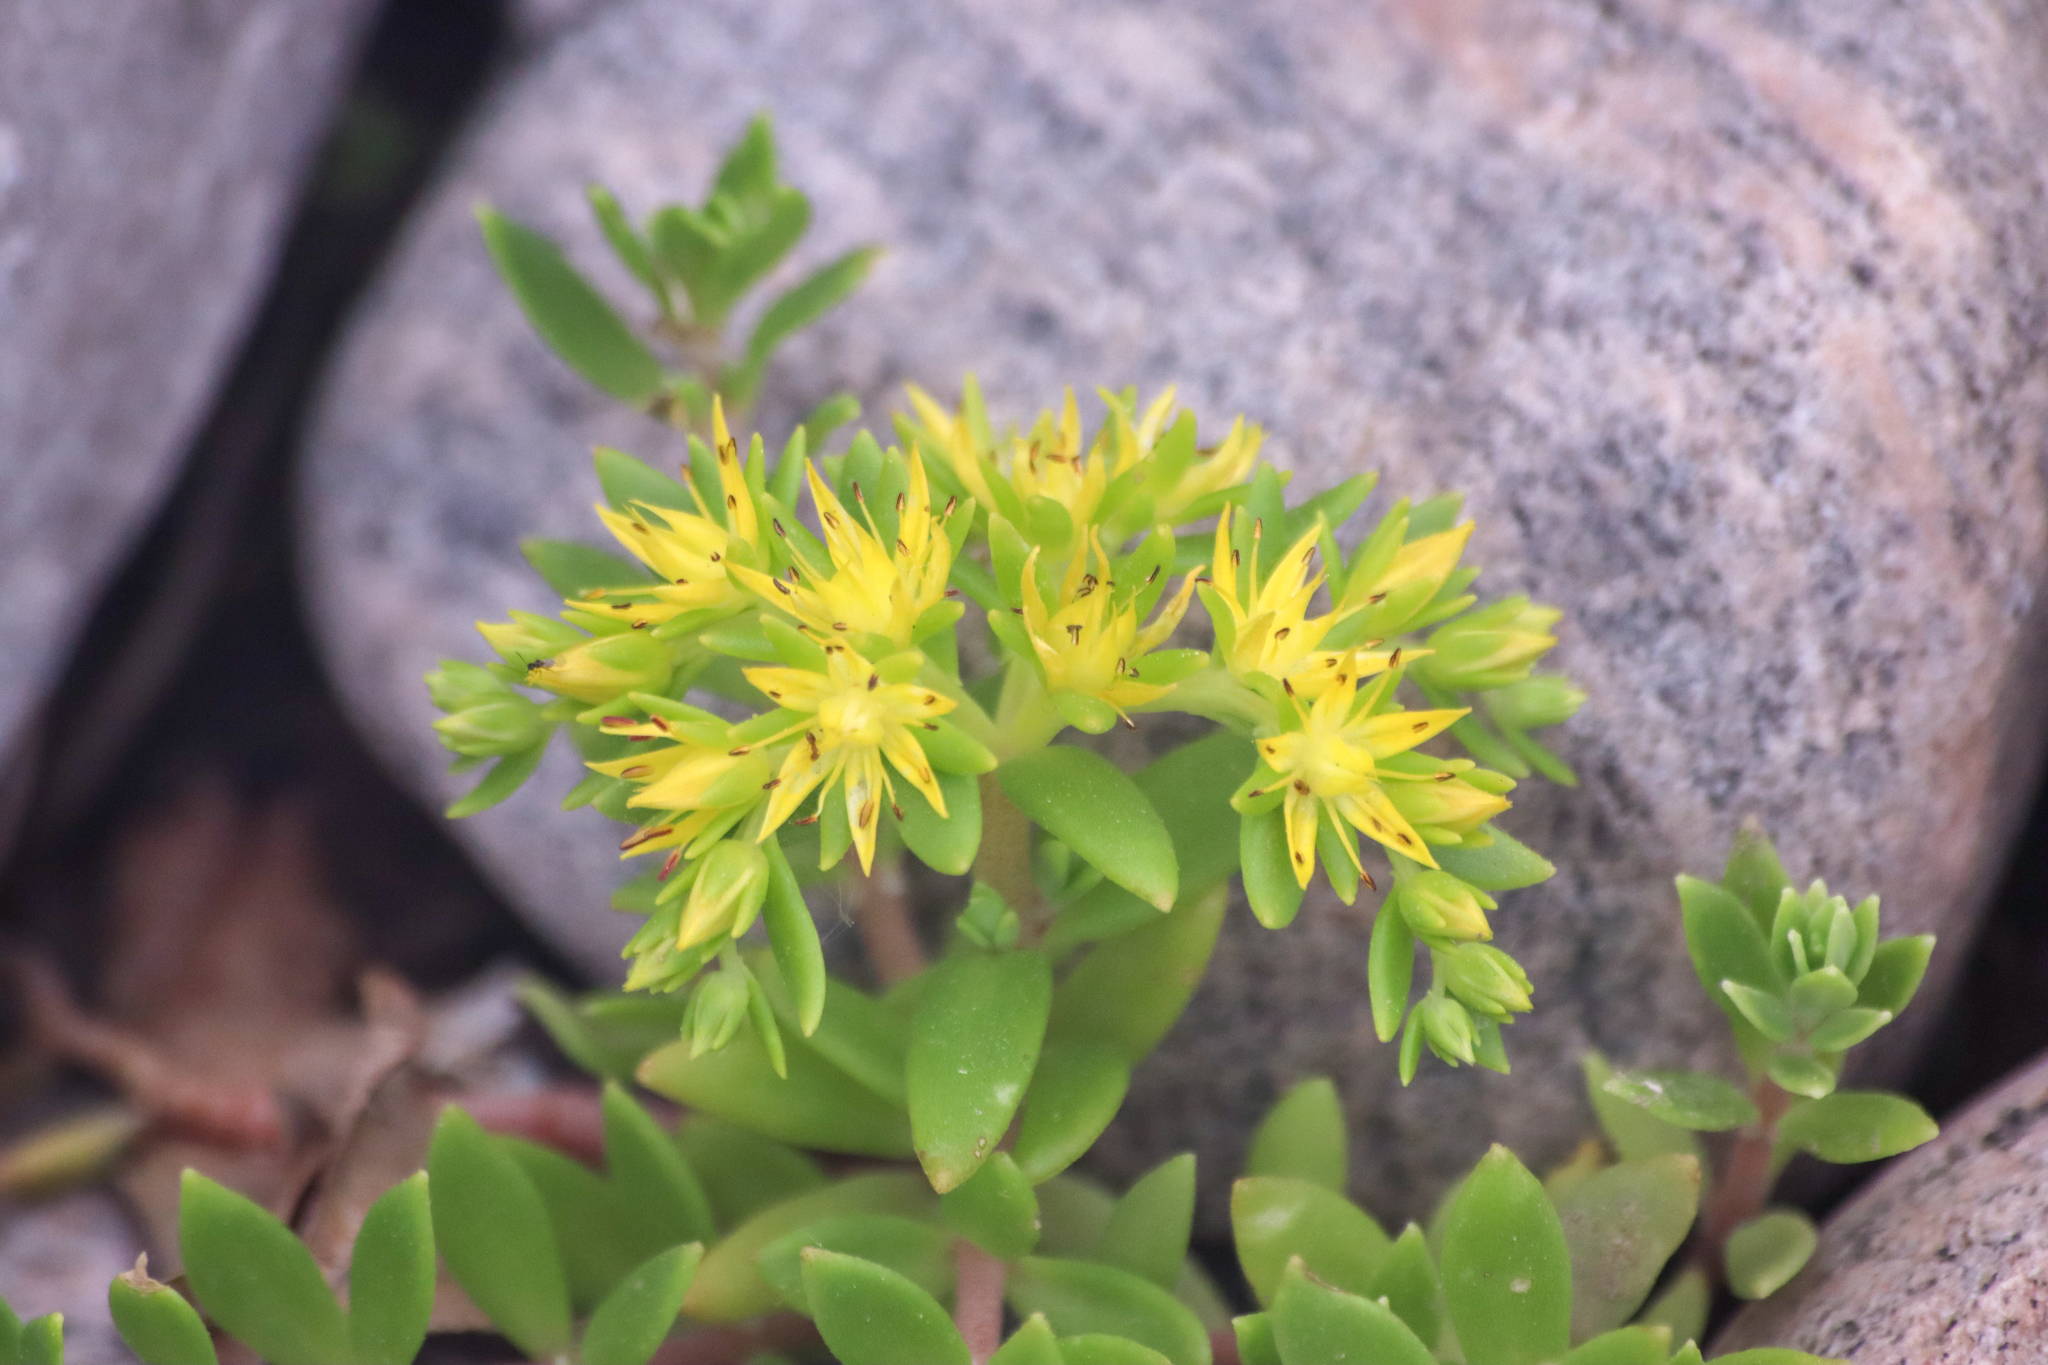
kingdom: Plantae
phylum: Tracheophyta
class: Magnoliopsida
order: Saxifragales
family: Crassulaceae
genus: Sedum
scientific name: Sedum sarmentosum
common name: Stringy stonecrop
